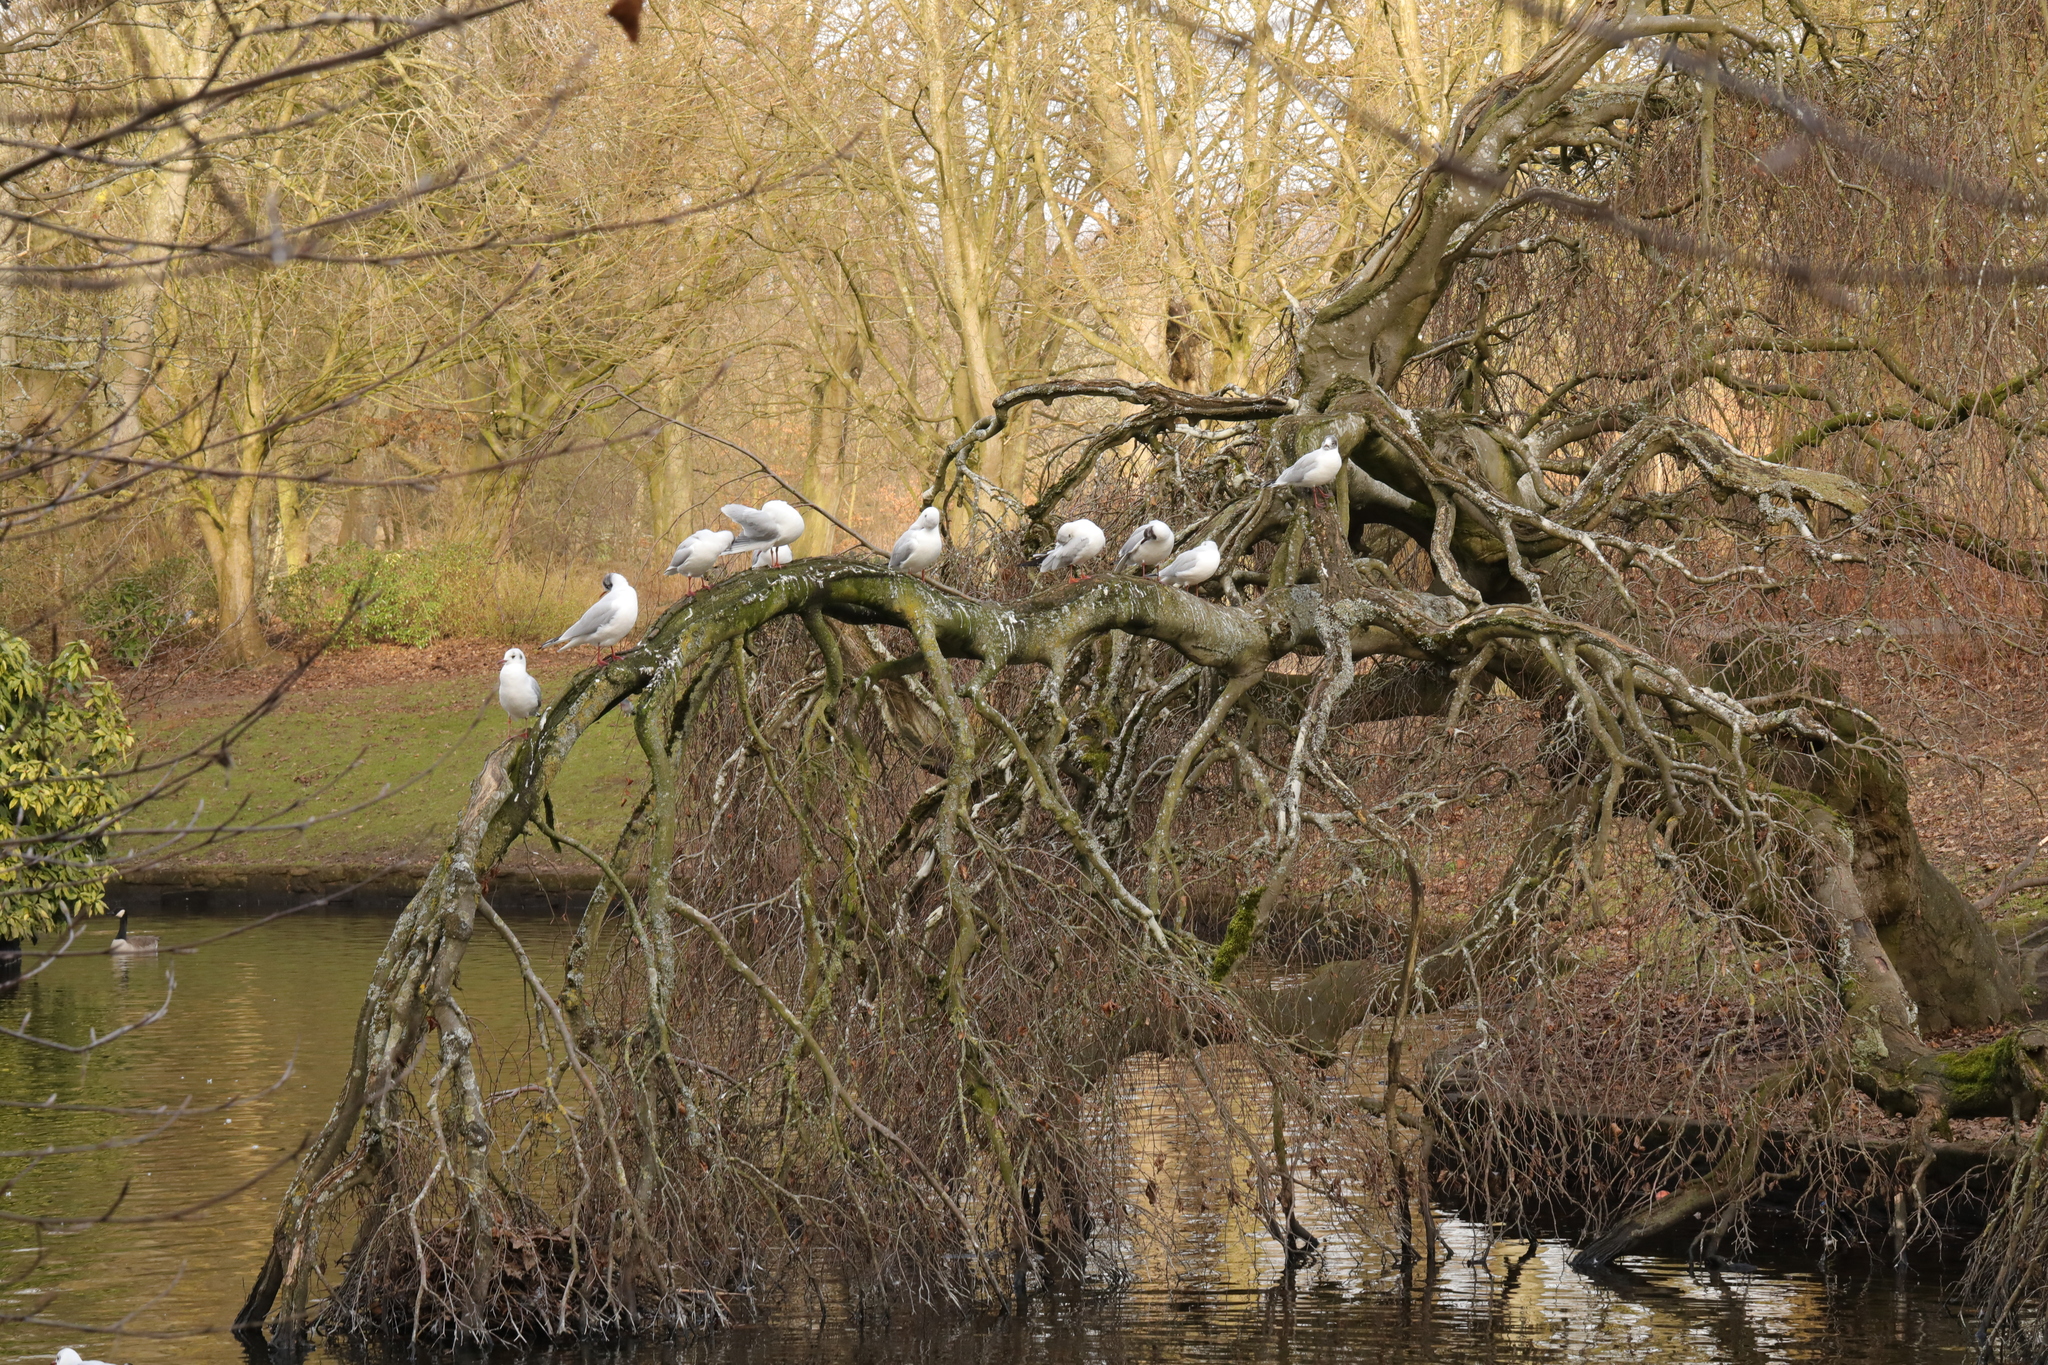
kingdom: Animalia
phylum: Chordata
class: Aves
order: Charadriiformes
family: Laridae
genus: Chroicocephalus
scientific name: Chroicocephalus ridibundus
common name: Black-headed gull
